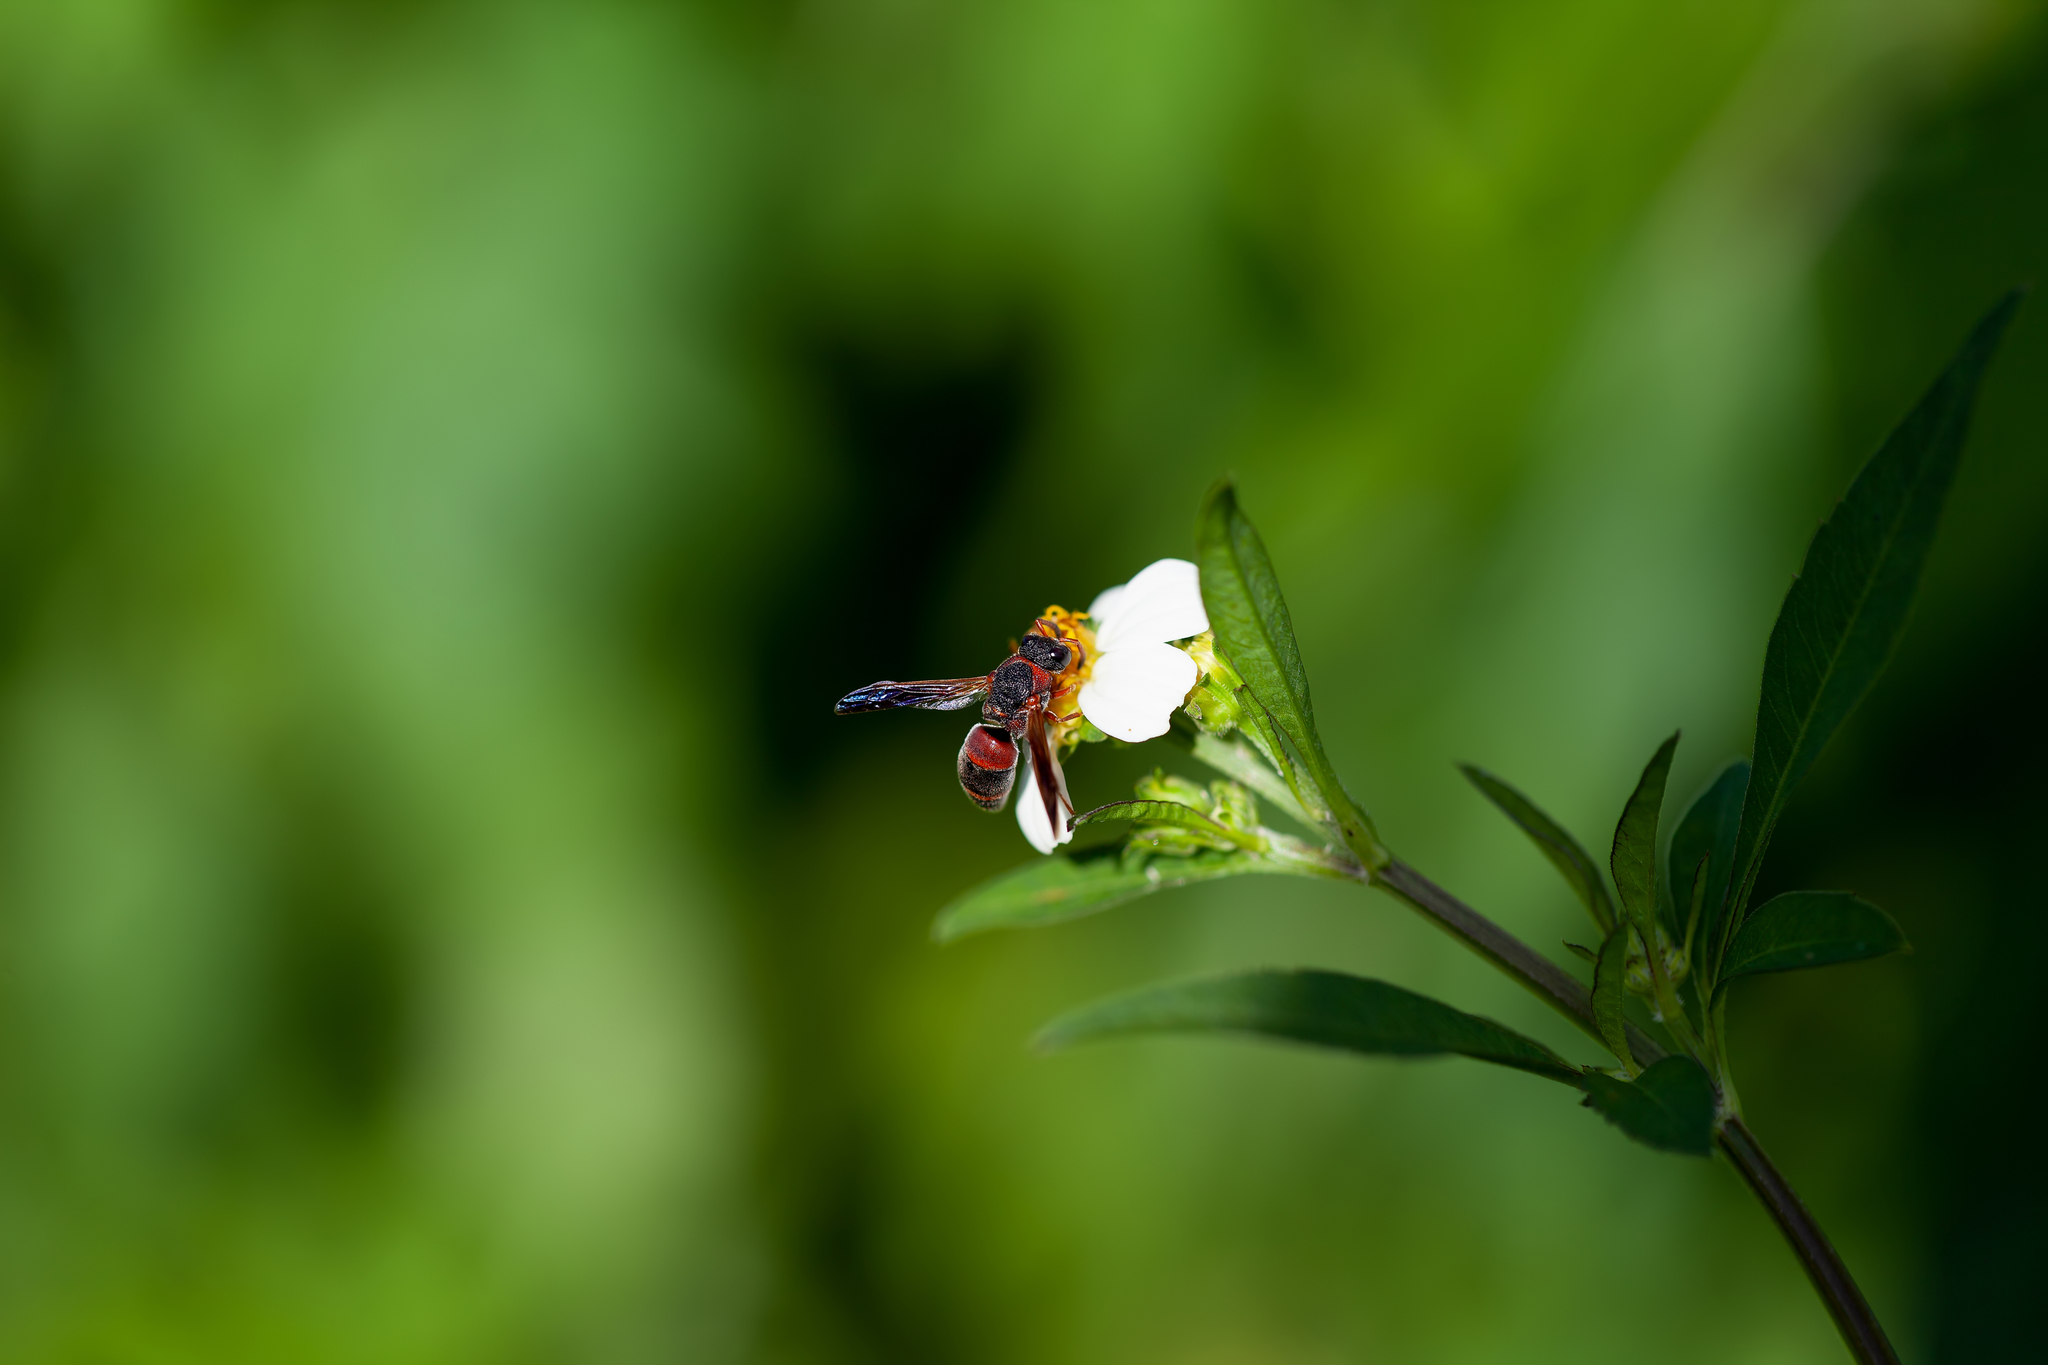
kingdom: Animalia
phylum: Arthropoda
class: Insecta
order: Hymenoptera
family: Eumenidae
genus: Pachodynerus
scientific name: Pachodynerus erynnis
